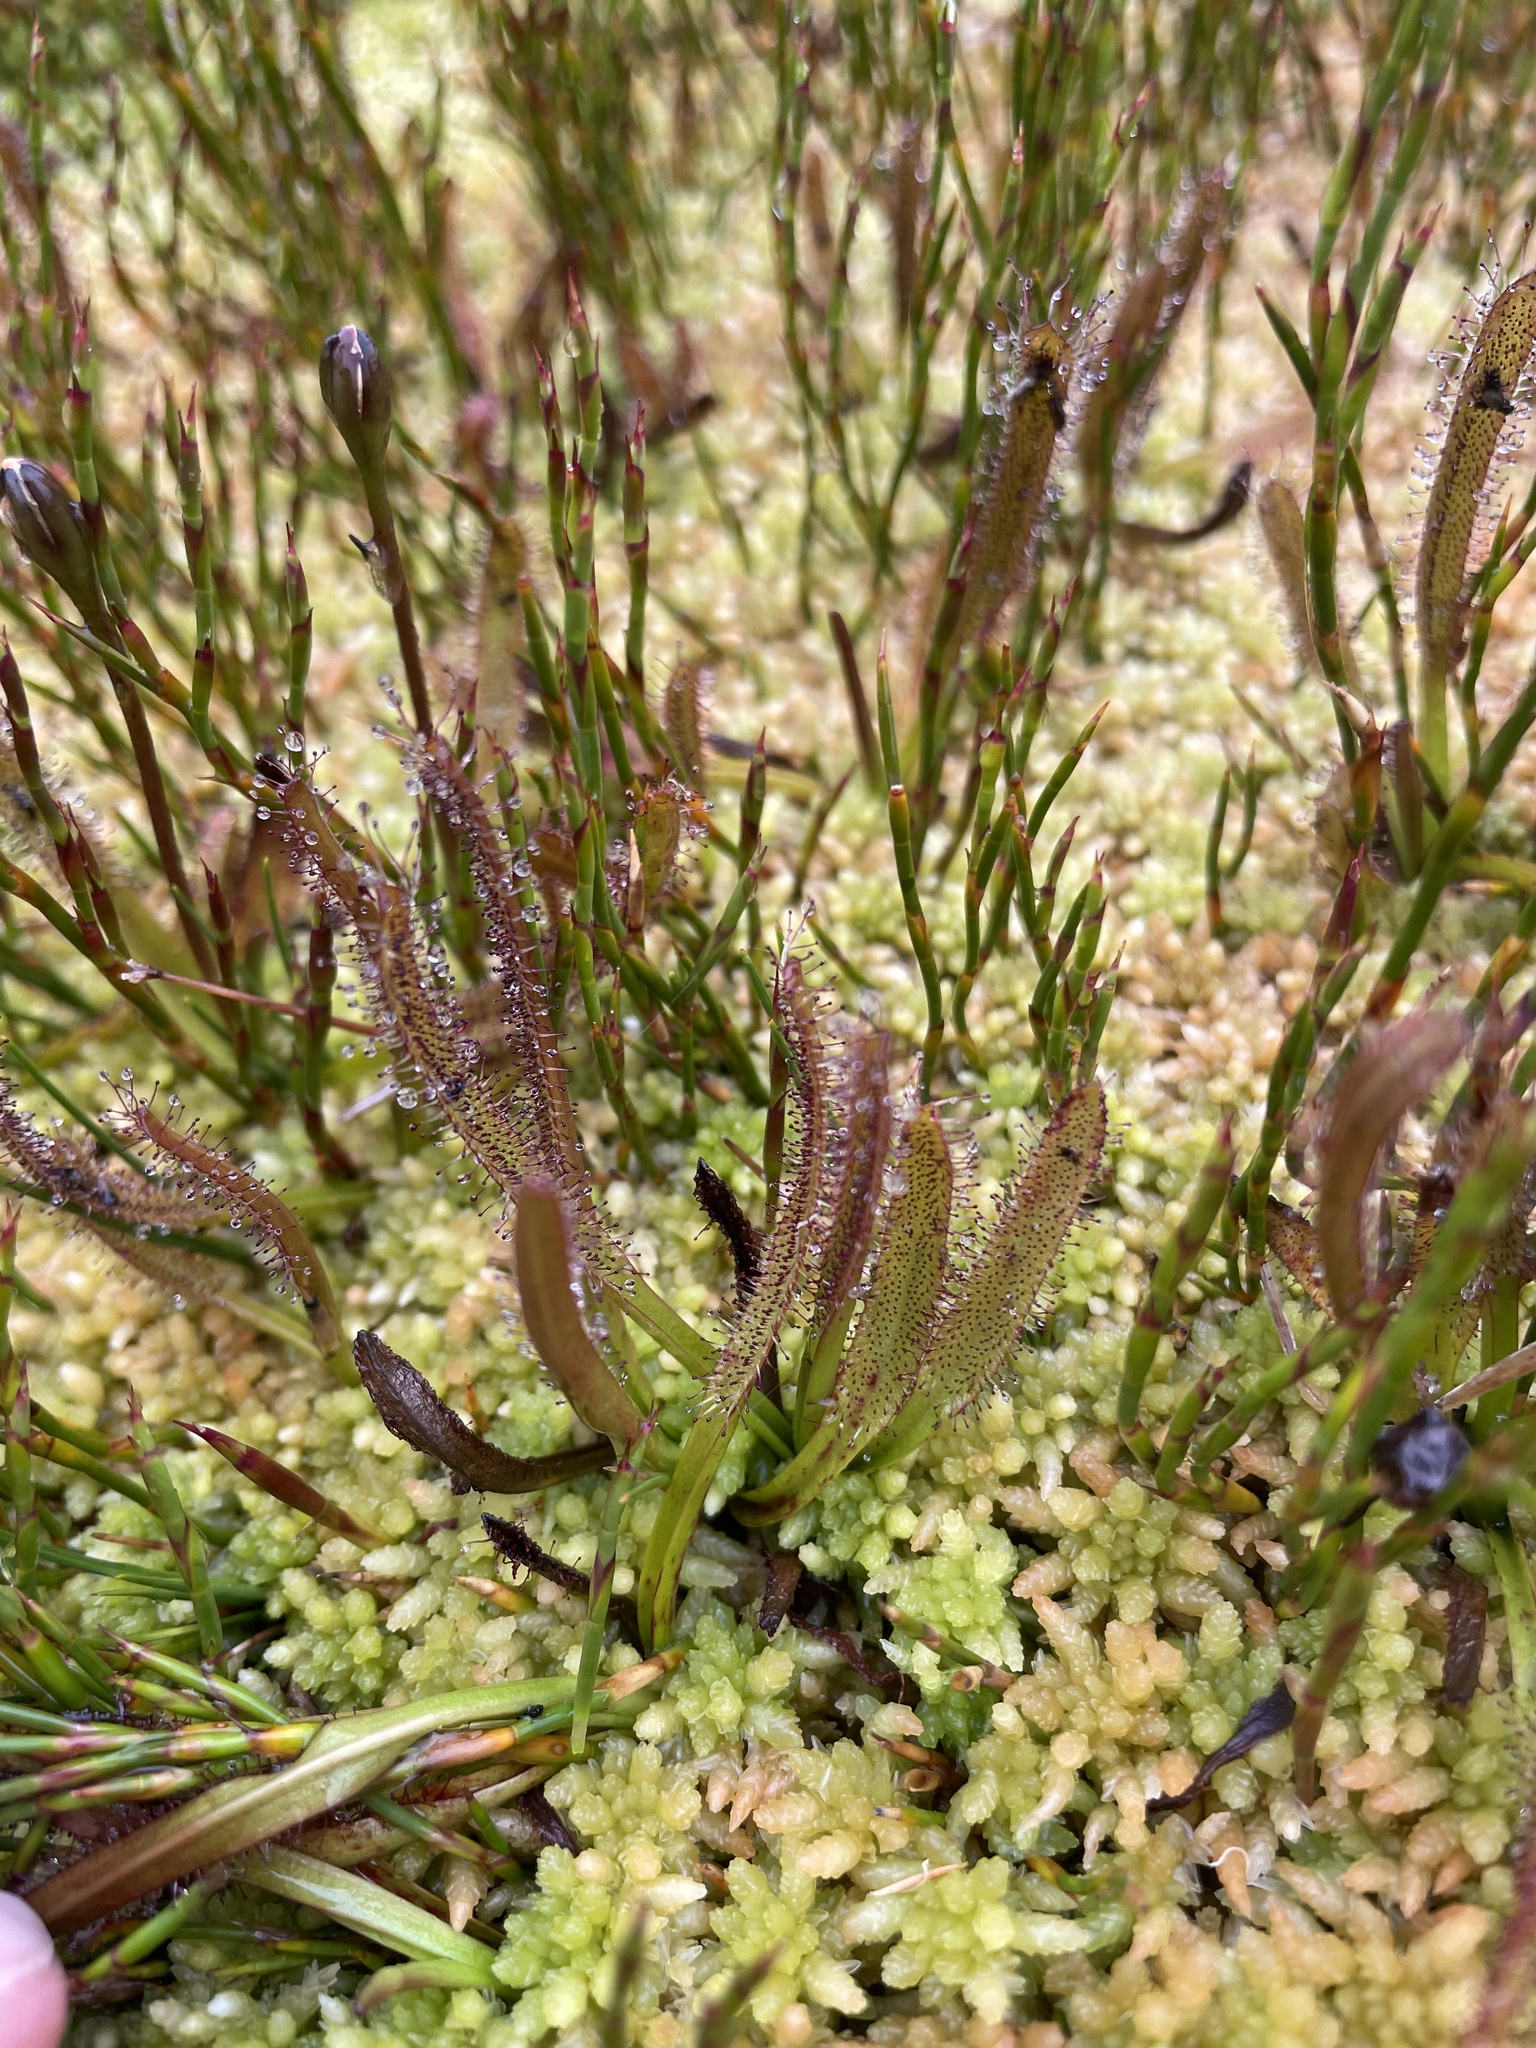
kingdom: Plantae
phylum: Tracheophyta
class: Magnoliopsida
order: Caryophyllales
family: Droseraceae
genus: Drosera
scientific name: Drosera arcturi
